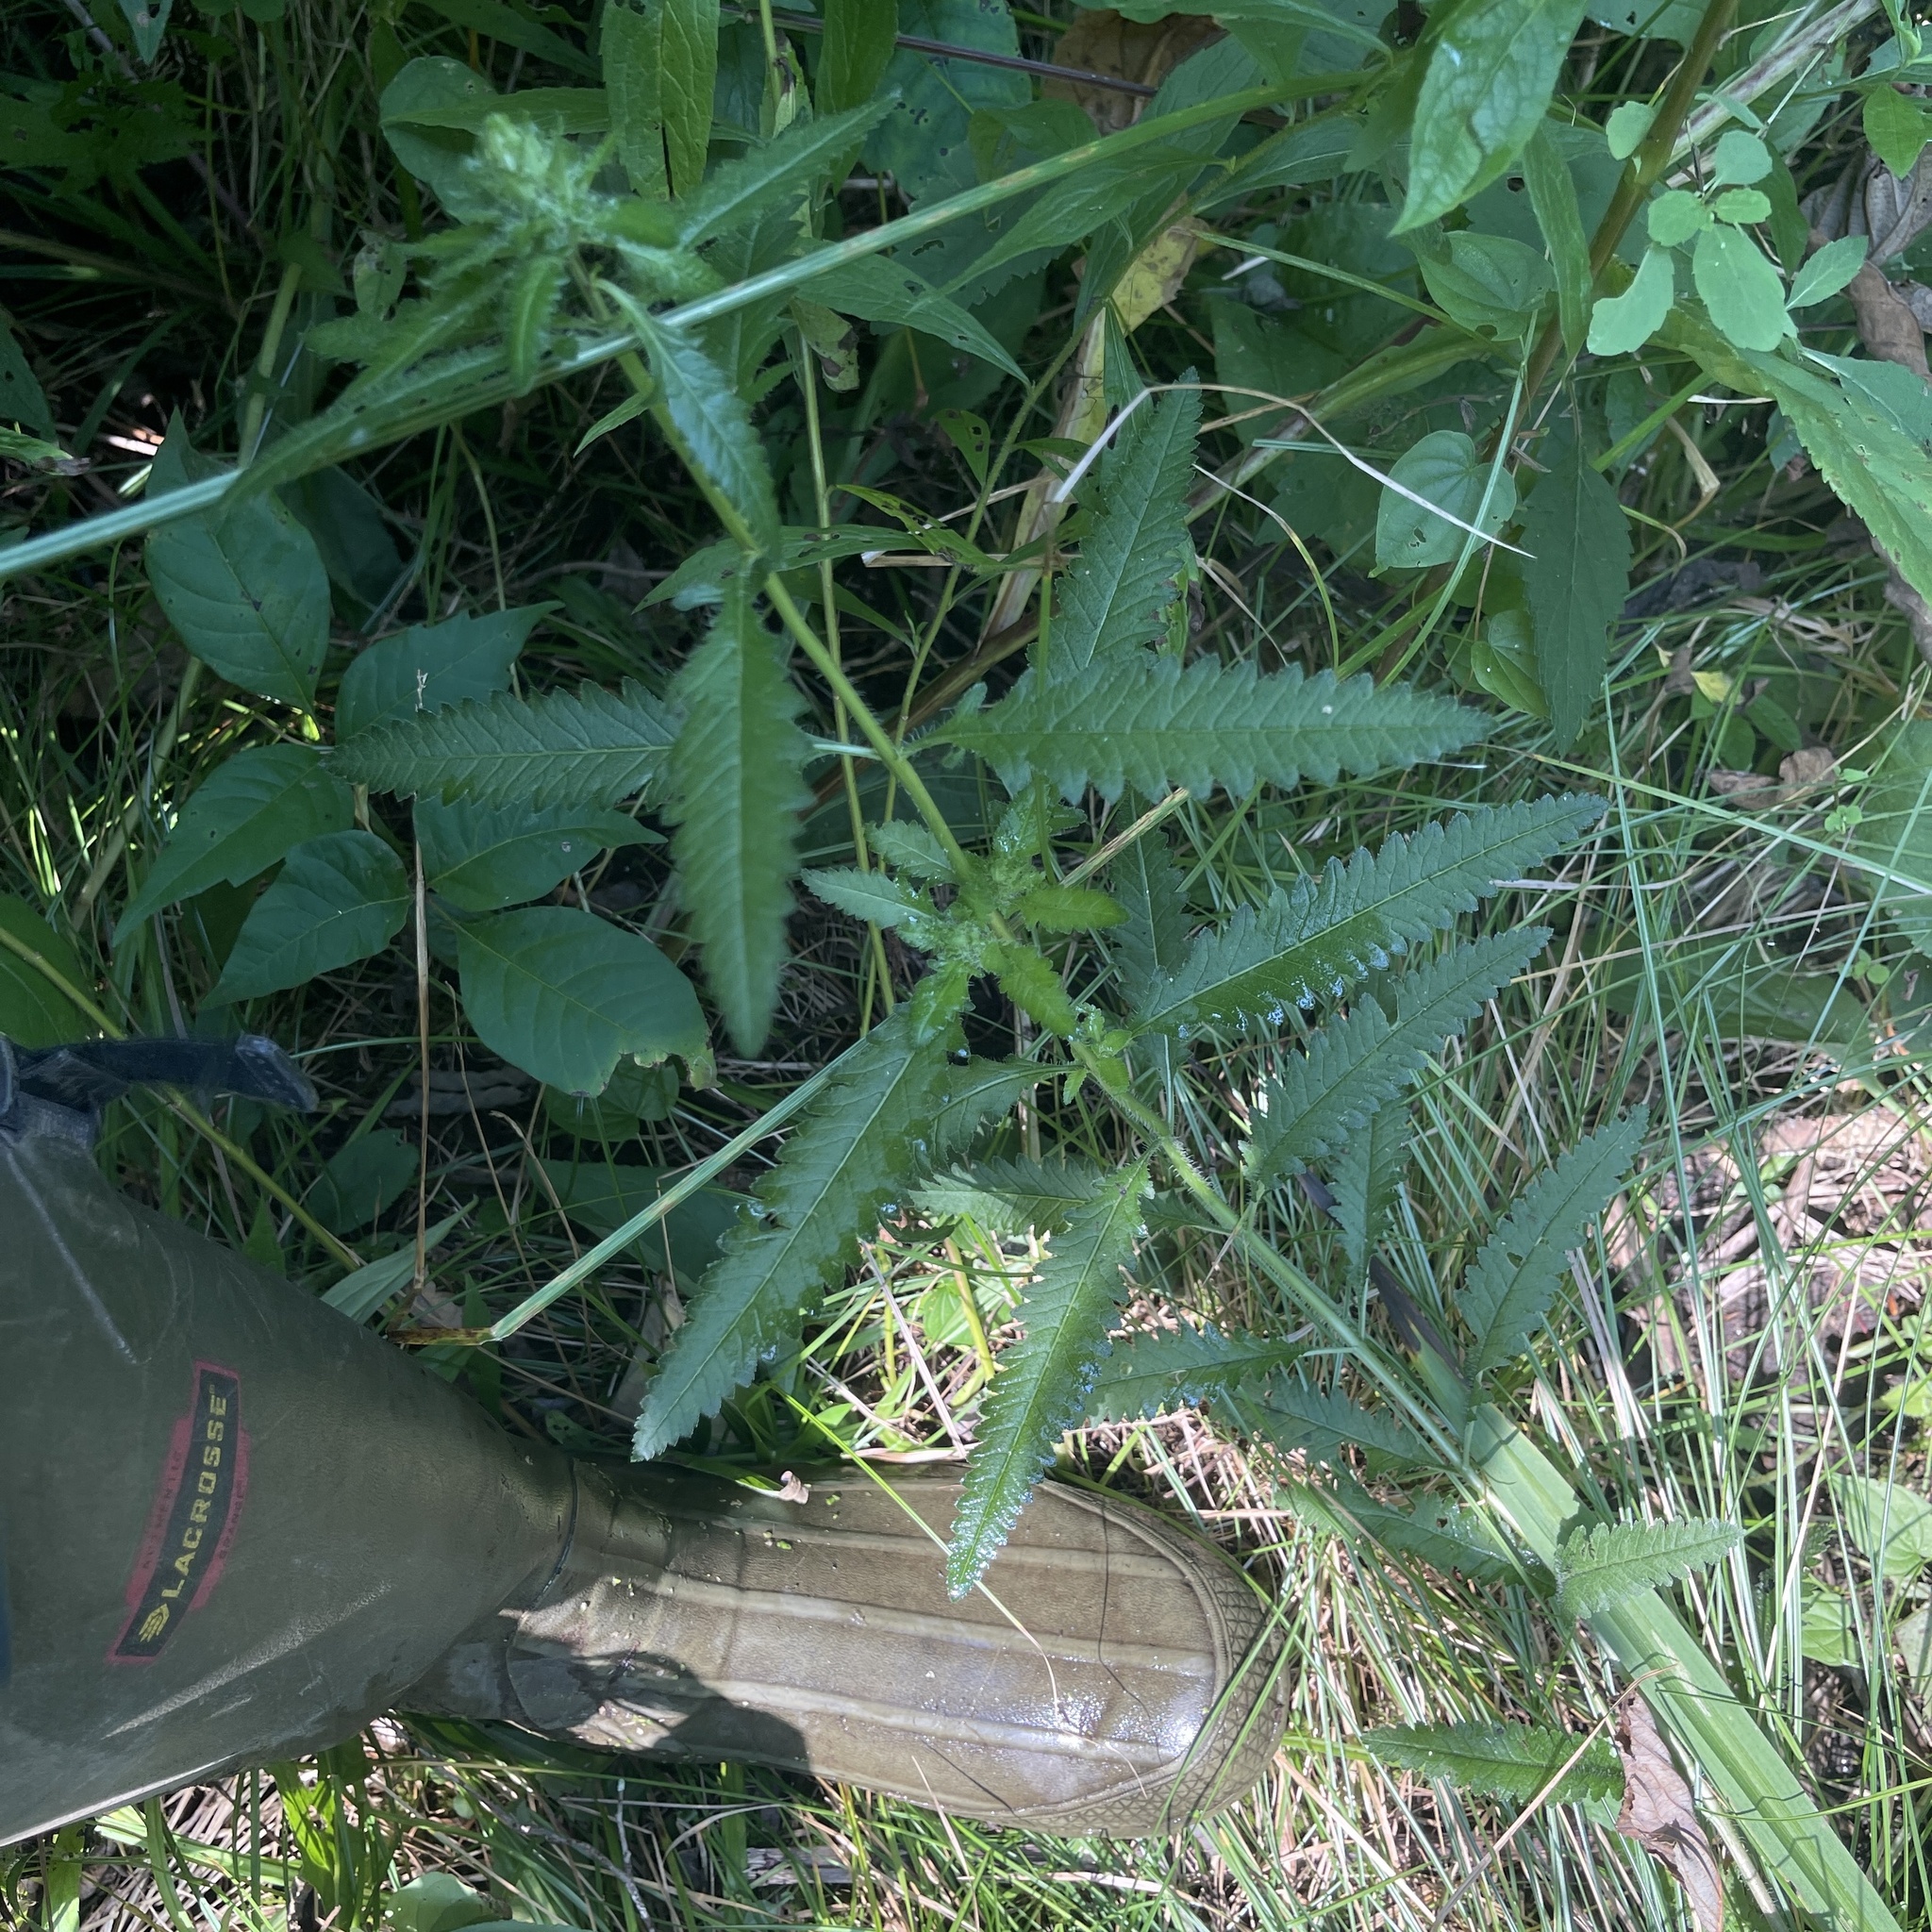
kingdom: Plantae
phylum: Tracheophyta
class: Magnoliopsida
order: Lamiales
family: Orobanchaceae
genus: Pedicularis
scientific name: Pedicularis lanceolata
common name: Swamp lousewort
